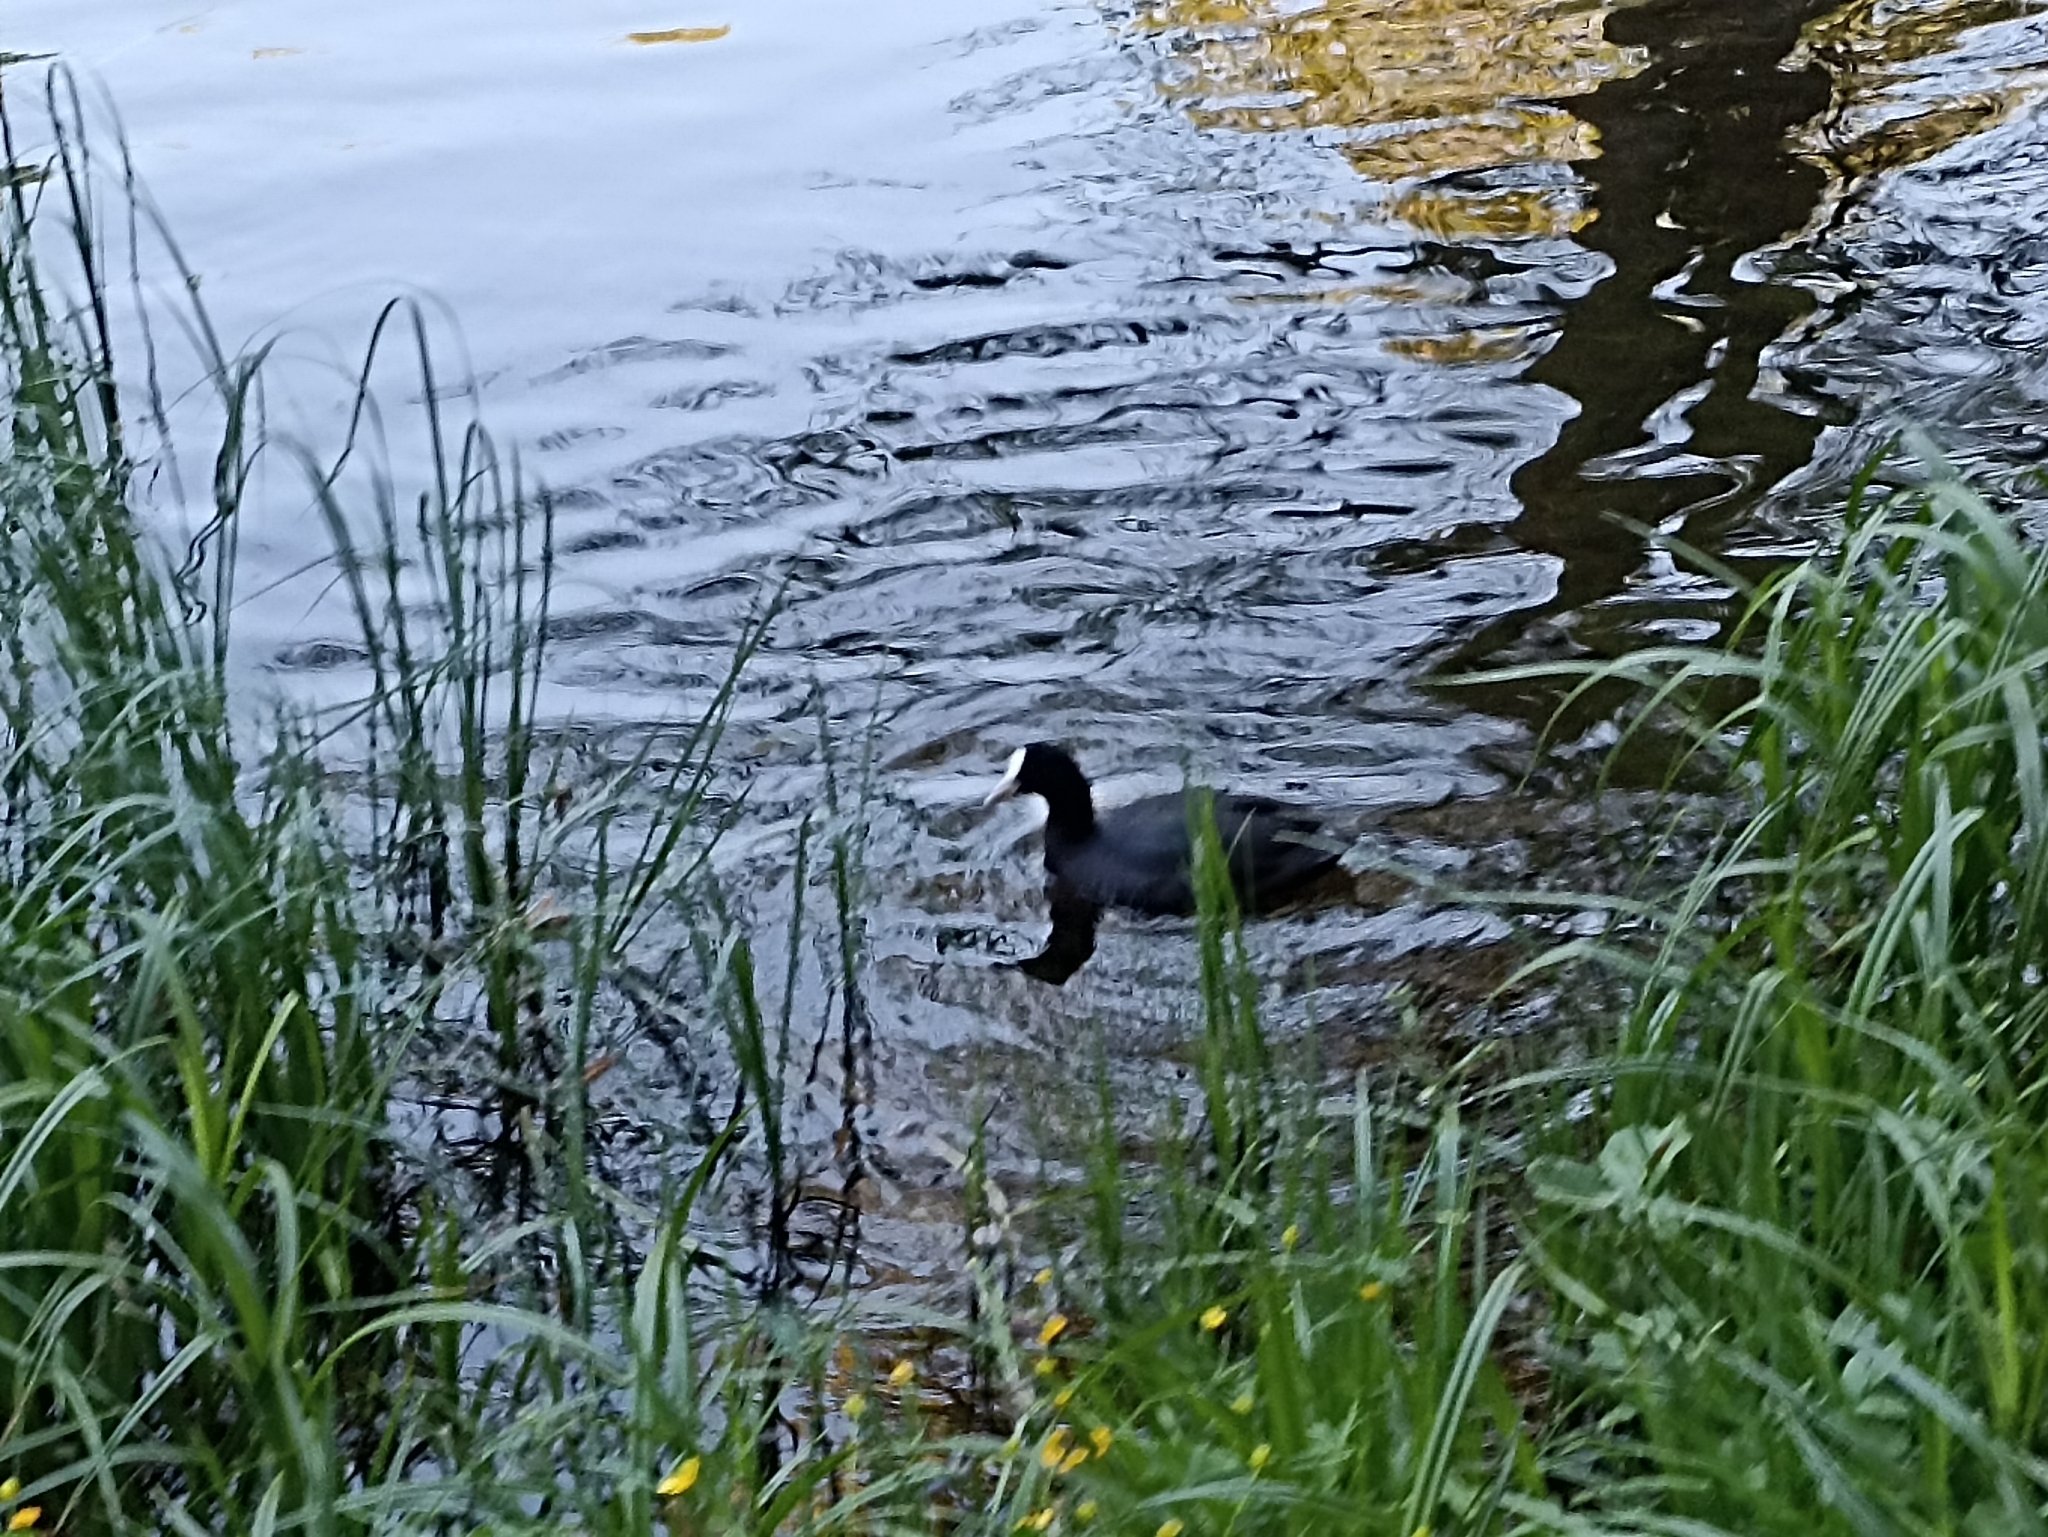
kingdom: Animalia
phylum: Chordata
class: Aves
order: Gruiformes
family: Rallidae
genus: Fulica
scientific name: Fulica atra
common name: Eurasian coot
